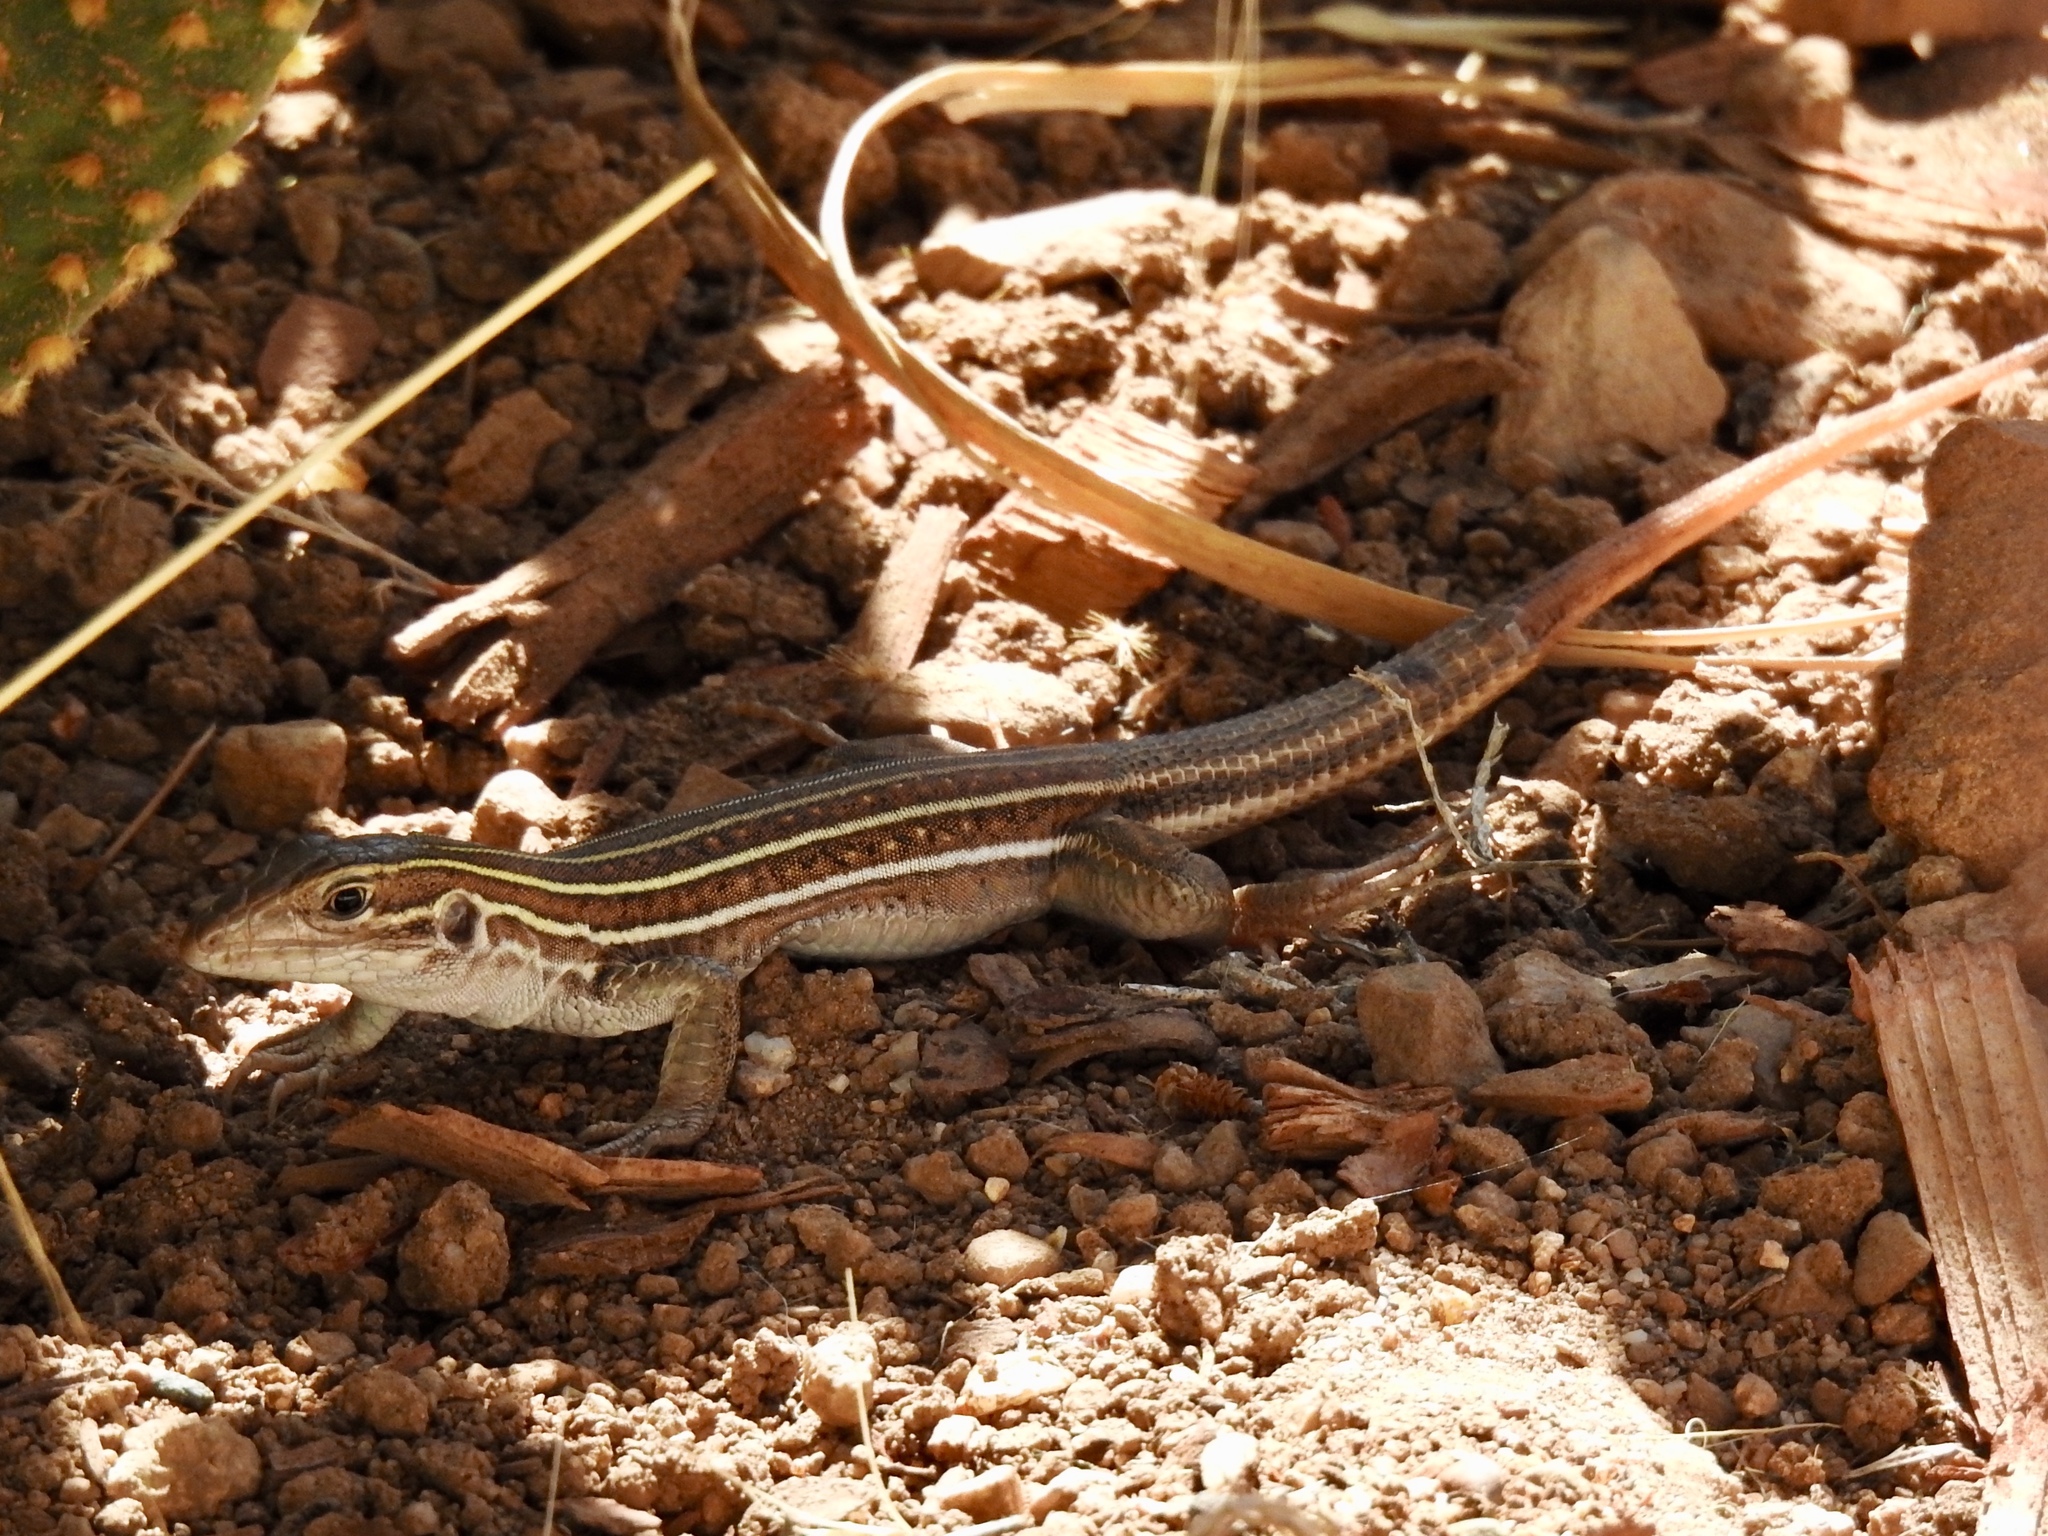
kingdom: Animalia
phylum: Chordata
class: Squamata
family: Teiidae
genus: Aspidoscelis
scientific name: Aspidoscelis sonorae
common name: Sonoran spotted whiptail
